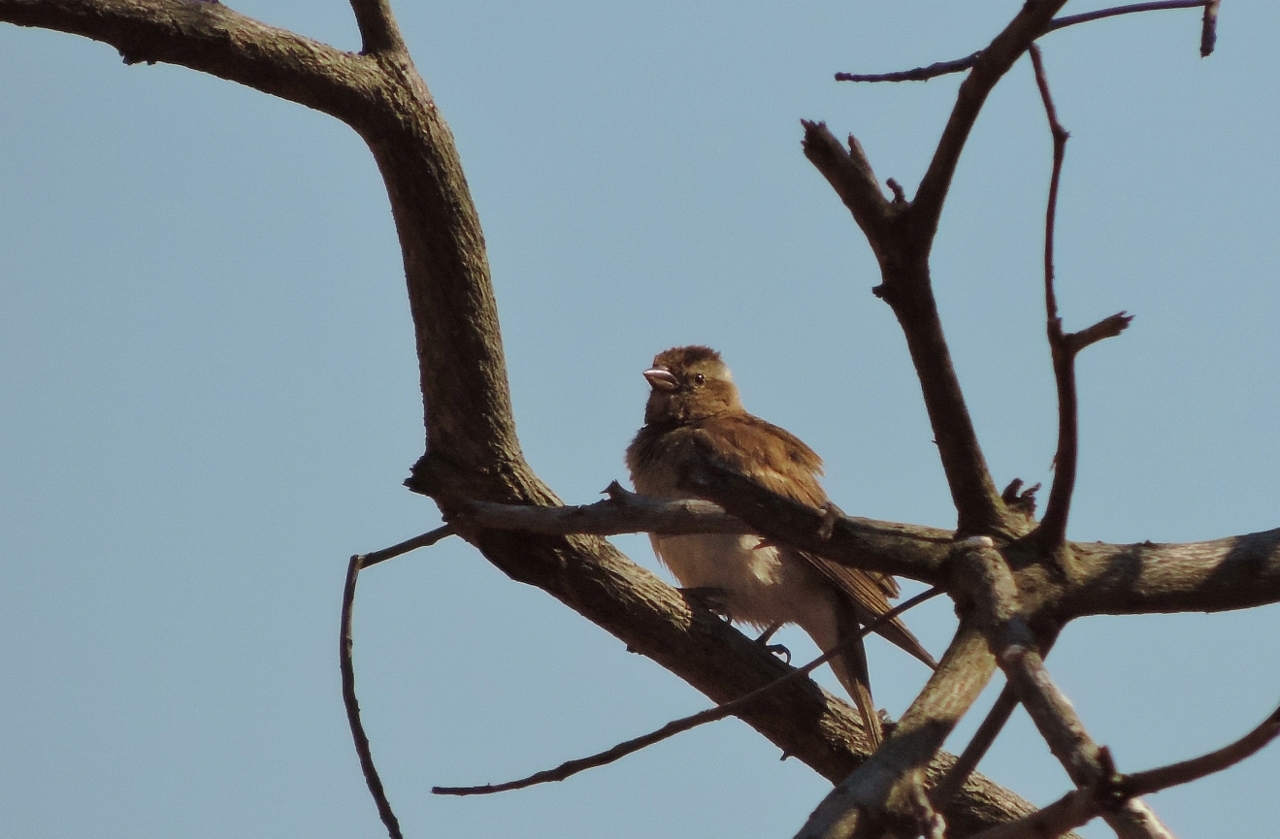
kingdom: Animalia
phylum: Chordata
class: Aves
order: Passeriformes
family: Passeridae
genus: Gymnoris
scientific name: Gymnoris superciliaris
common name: Yellow-throated petronia
